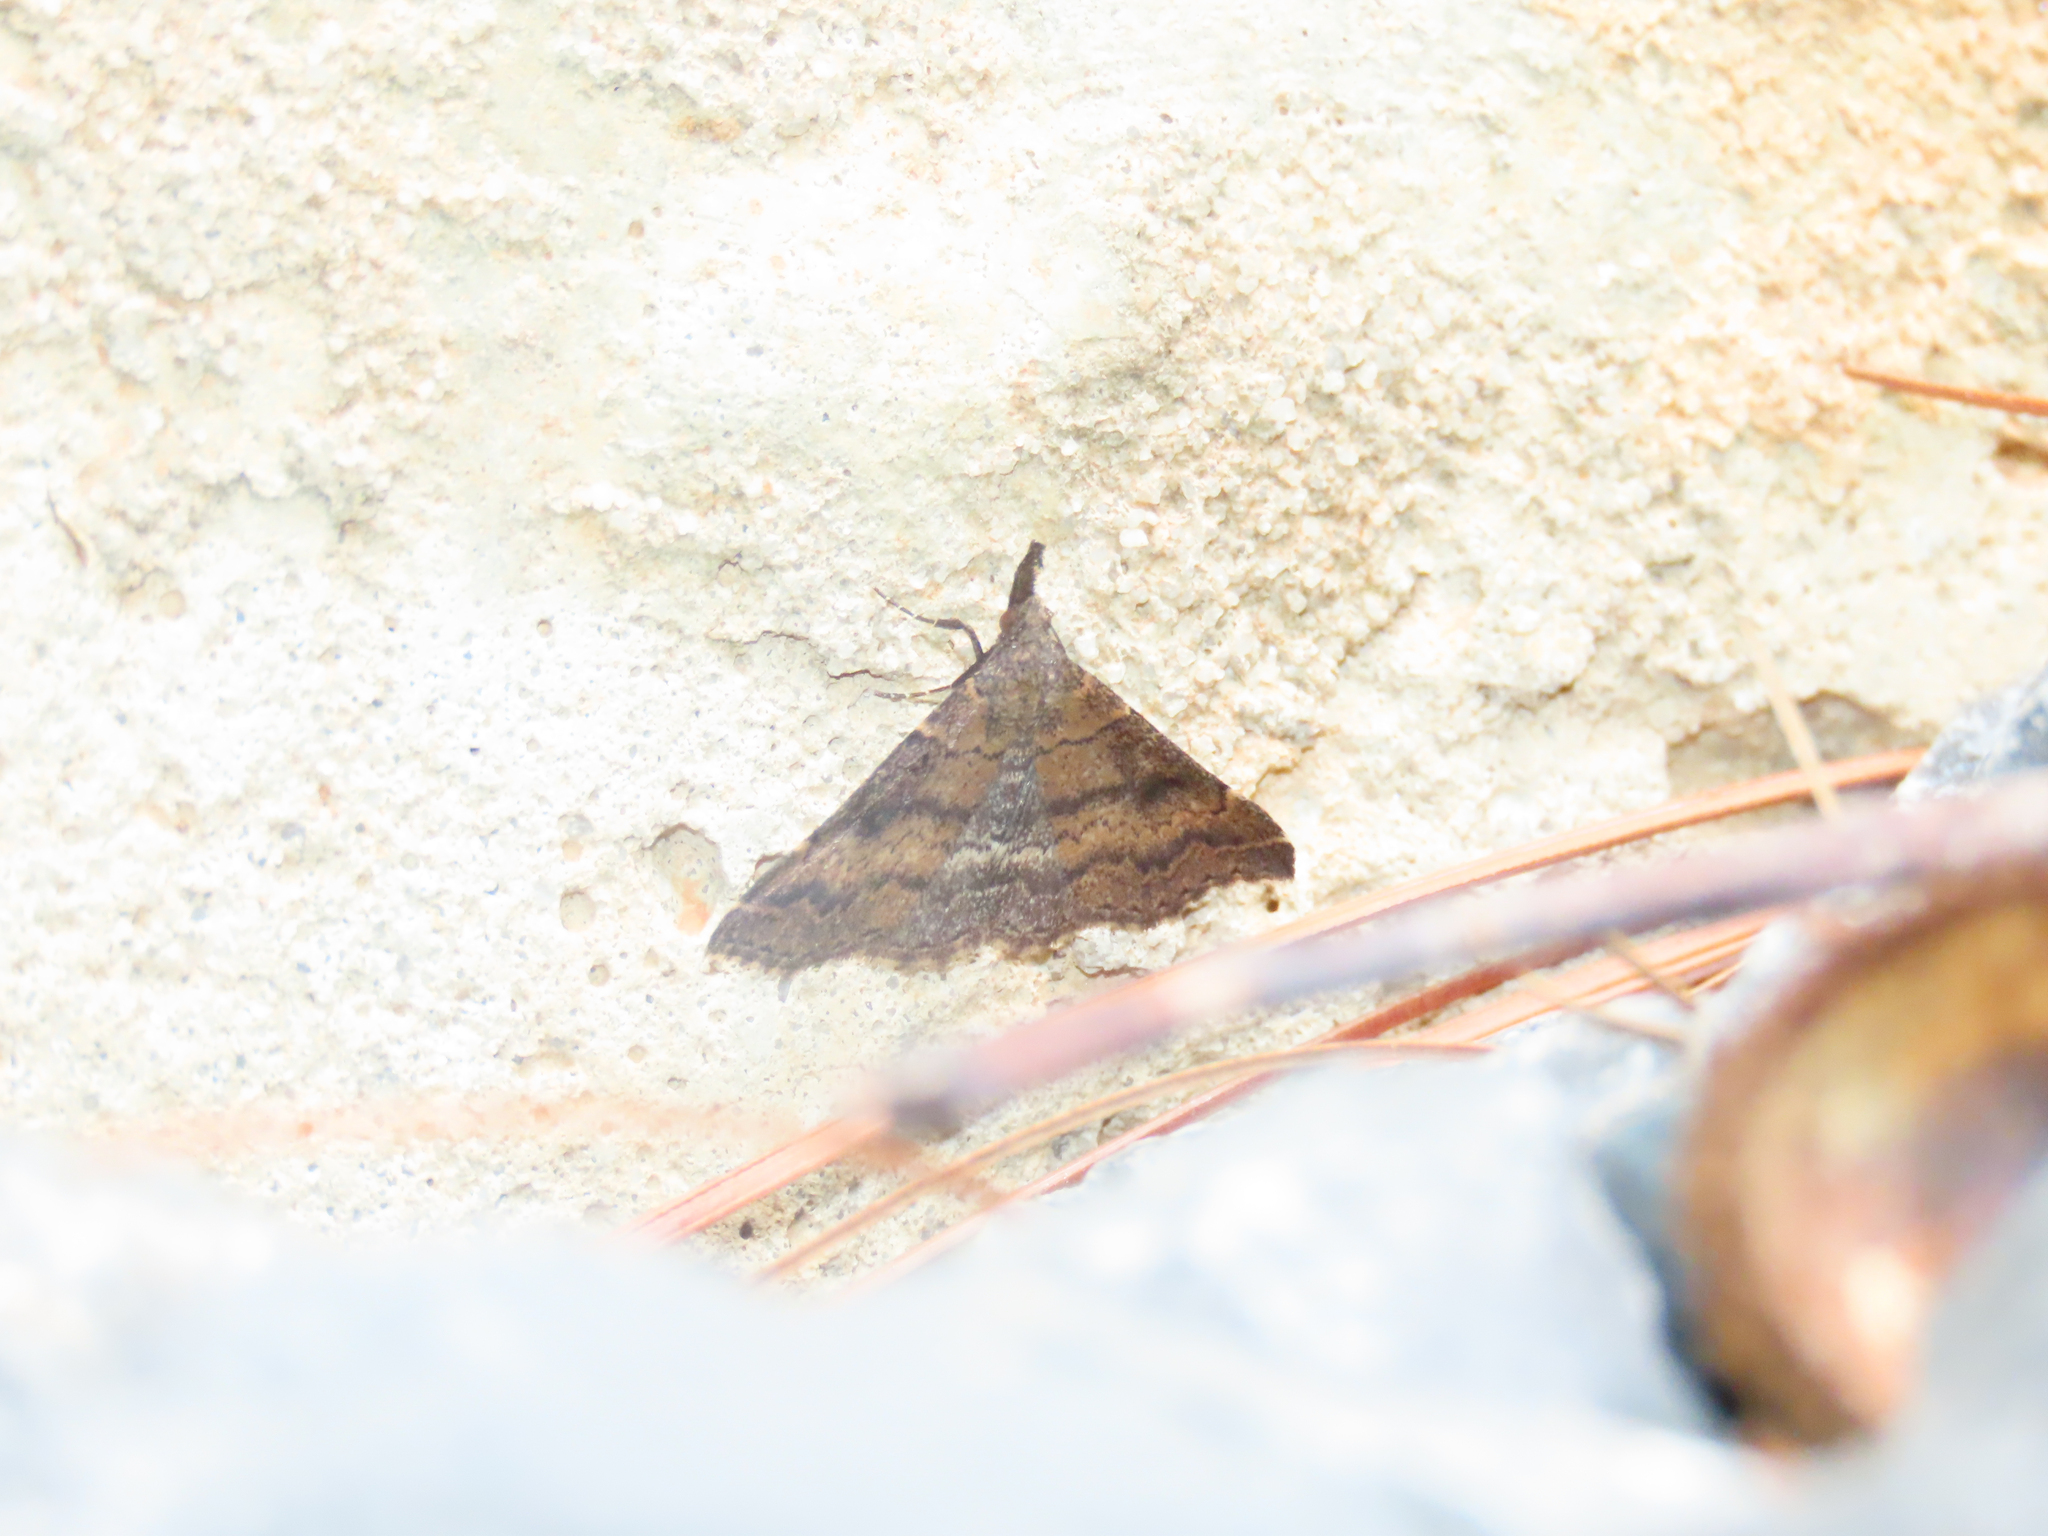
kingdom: Animalia
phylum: Arthropoda
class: Insecta
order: Lepidoptera
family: Erebidae
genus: Renia
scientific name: Renia factiosalis
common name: Sociable renia moth
